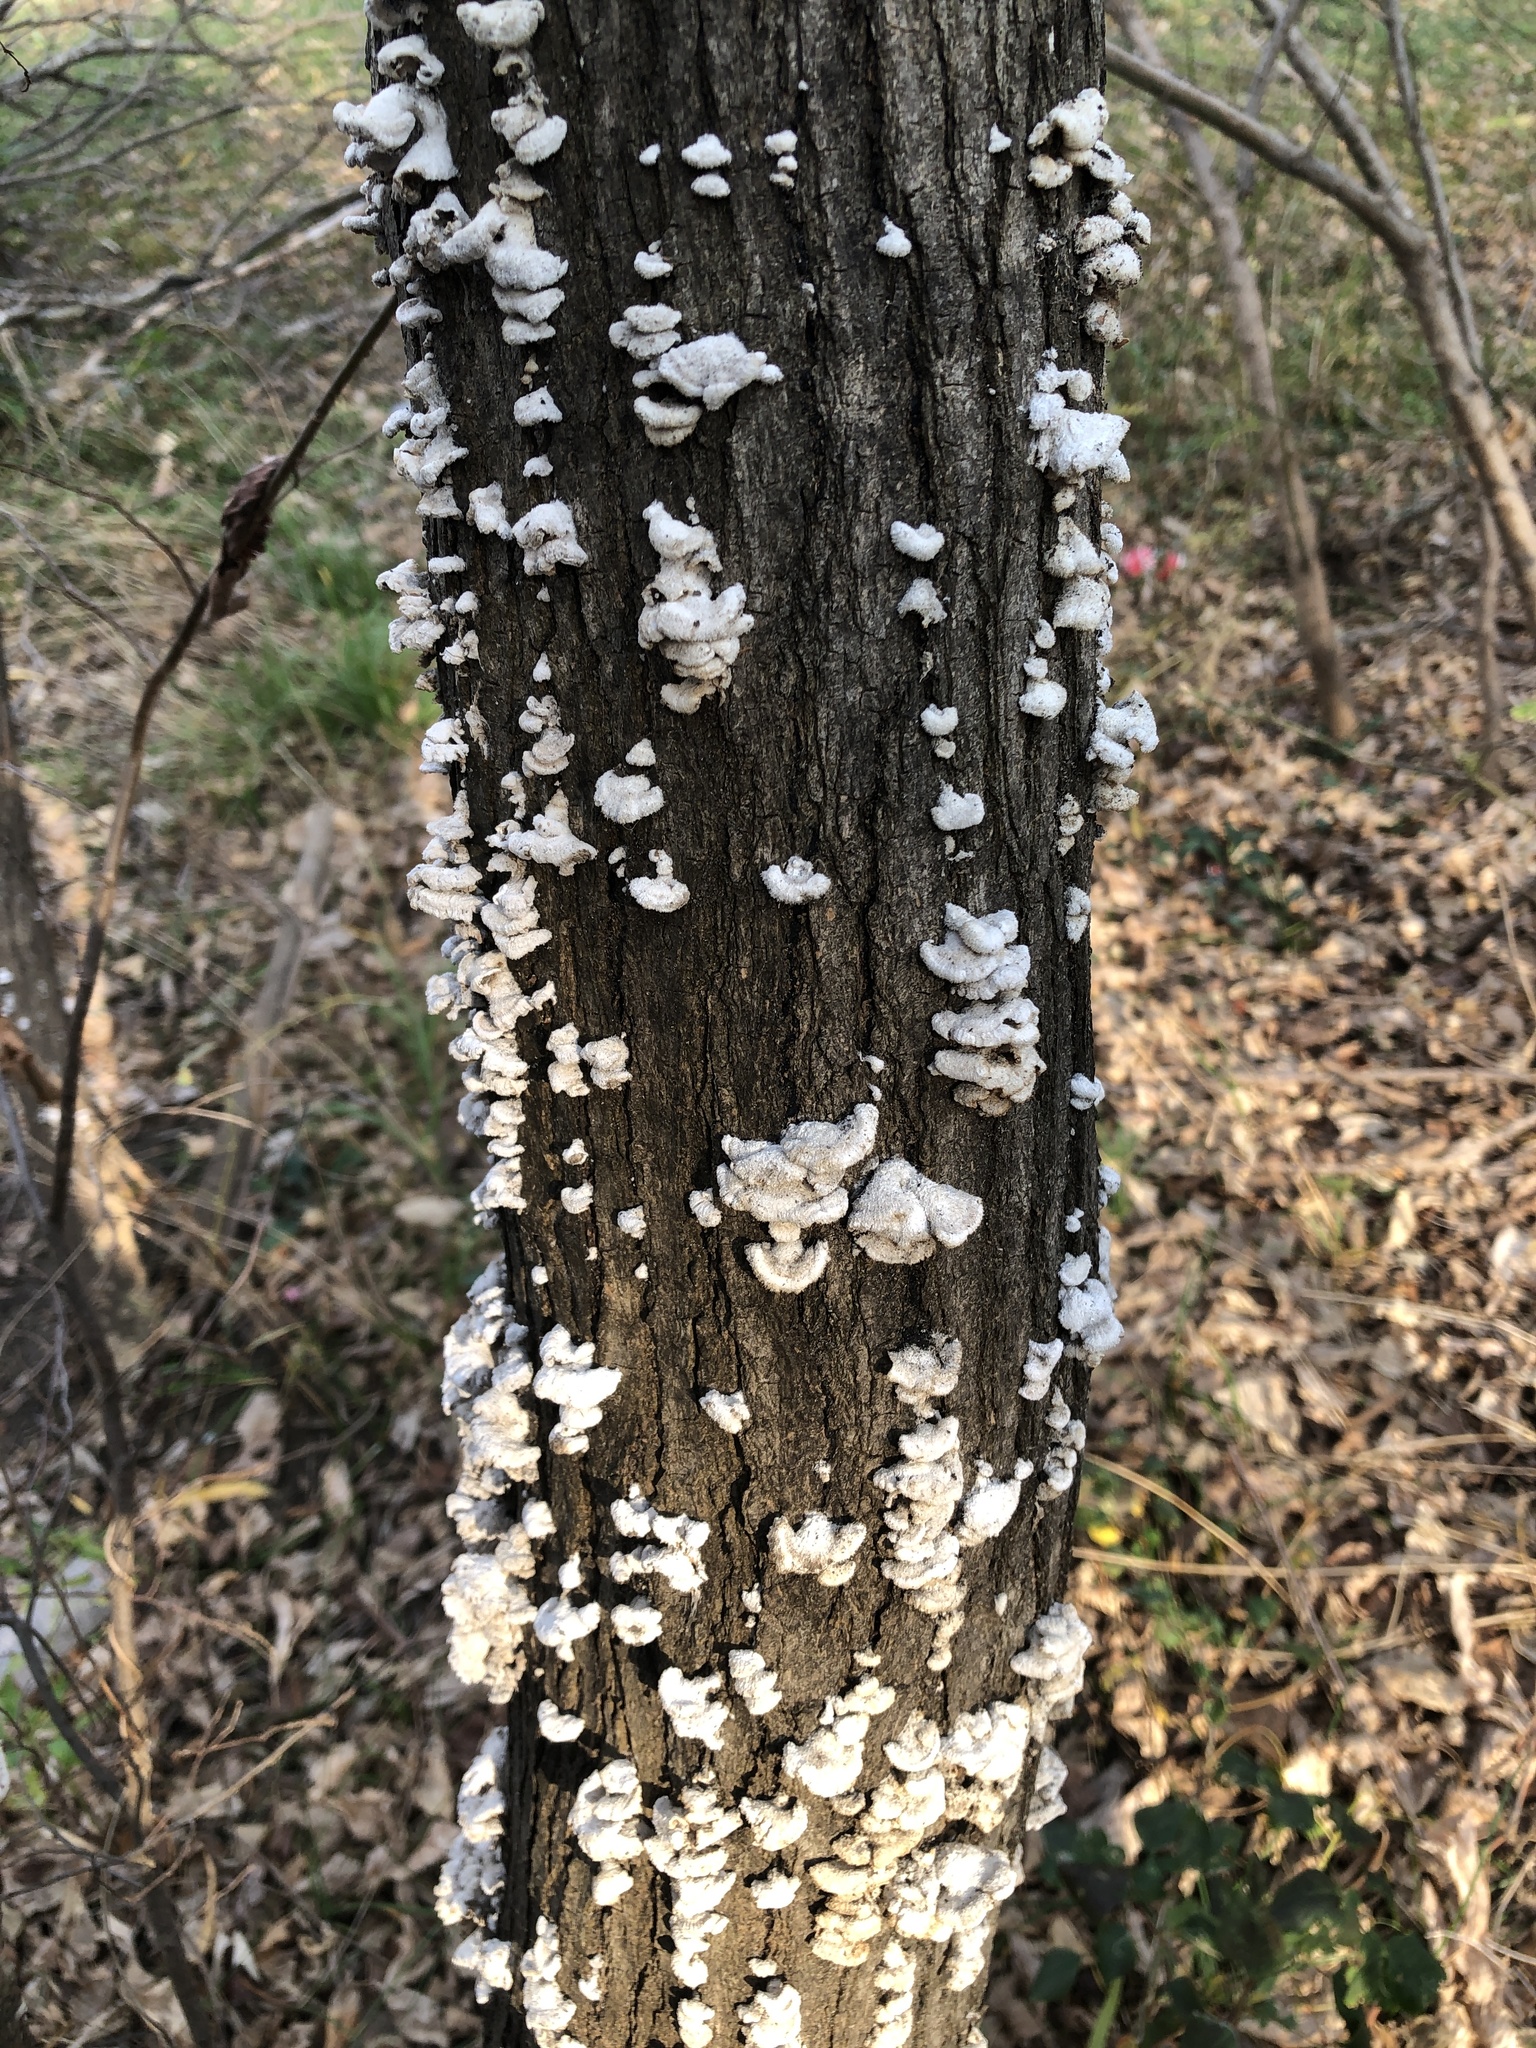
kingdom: Fungi
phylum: Basidiomycota
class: Agaricomycetes
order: Agaricales
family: Schizophyllaceae
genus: Schizophyllum
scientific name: Schizophyllum commune
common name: Common porecrust
